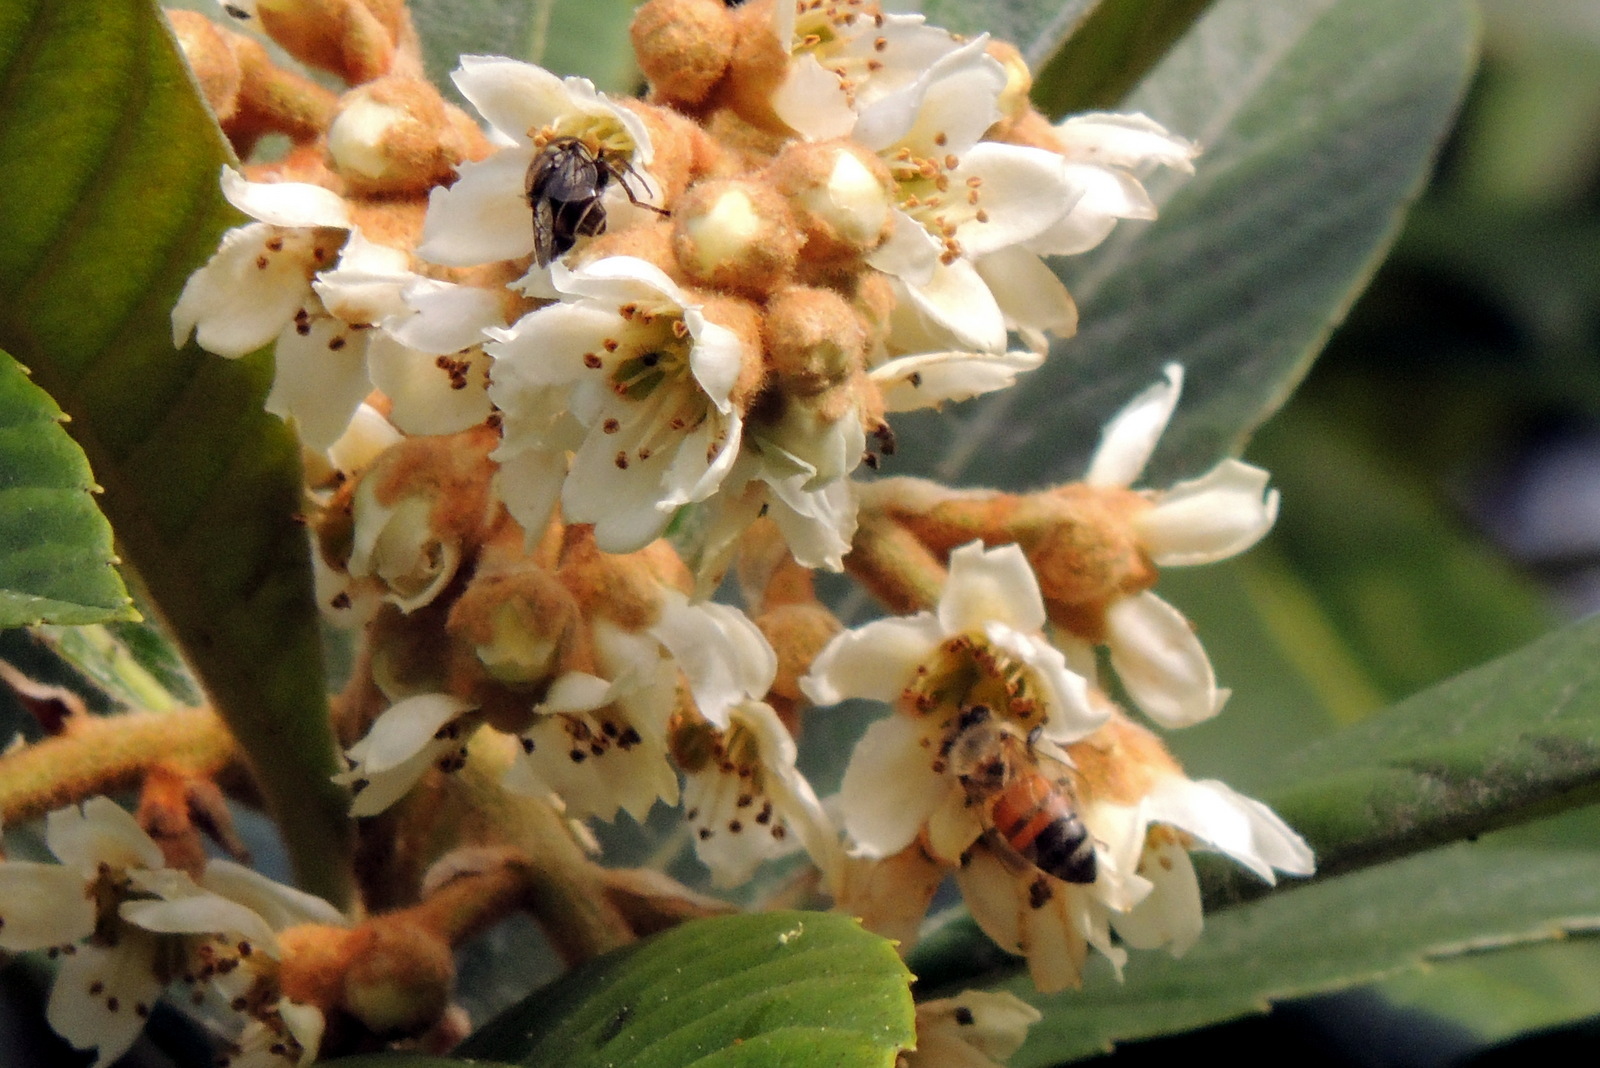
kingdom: Animalia
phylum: Arthropoda
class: Insecta
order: Hymenoptera
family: Apidae
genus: Apis
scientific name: Apis mellifera
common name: Honey bee
